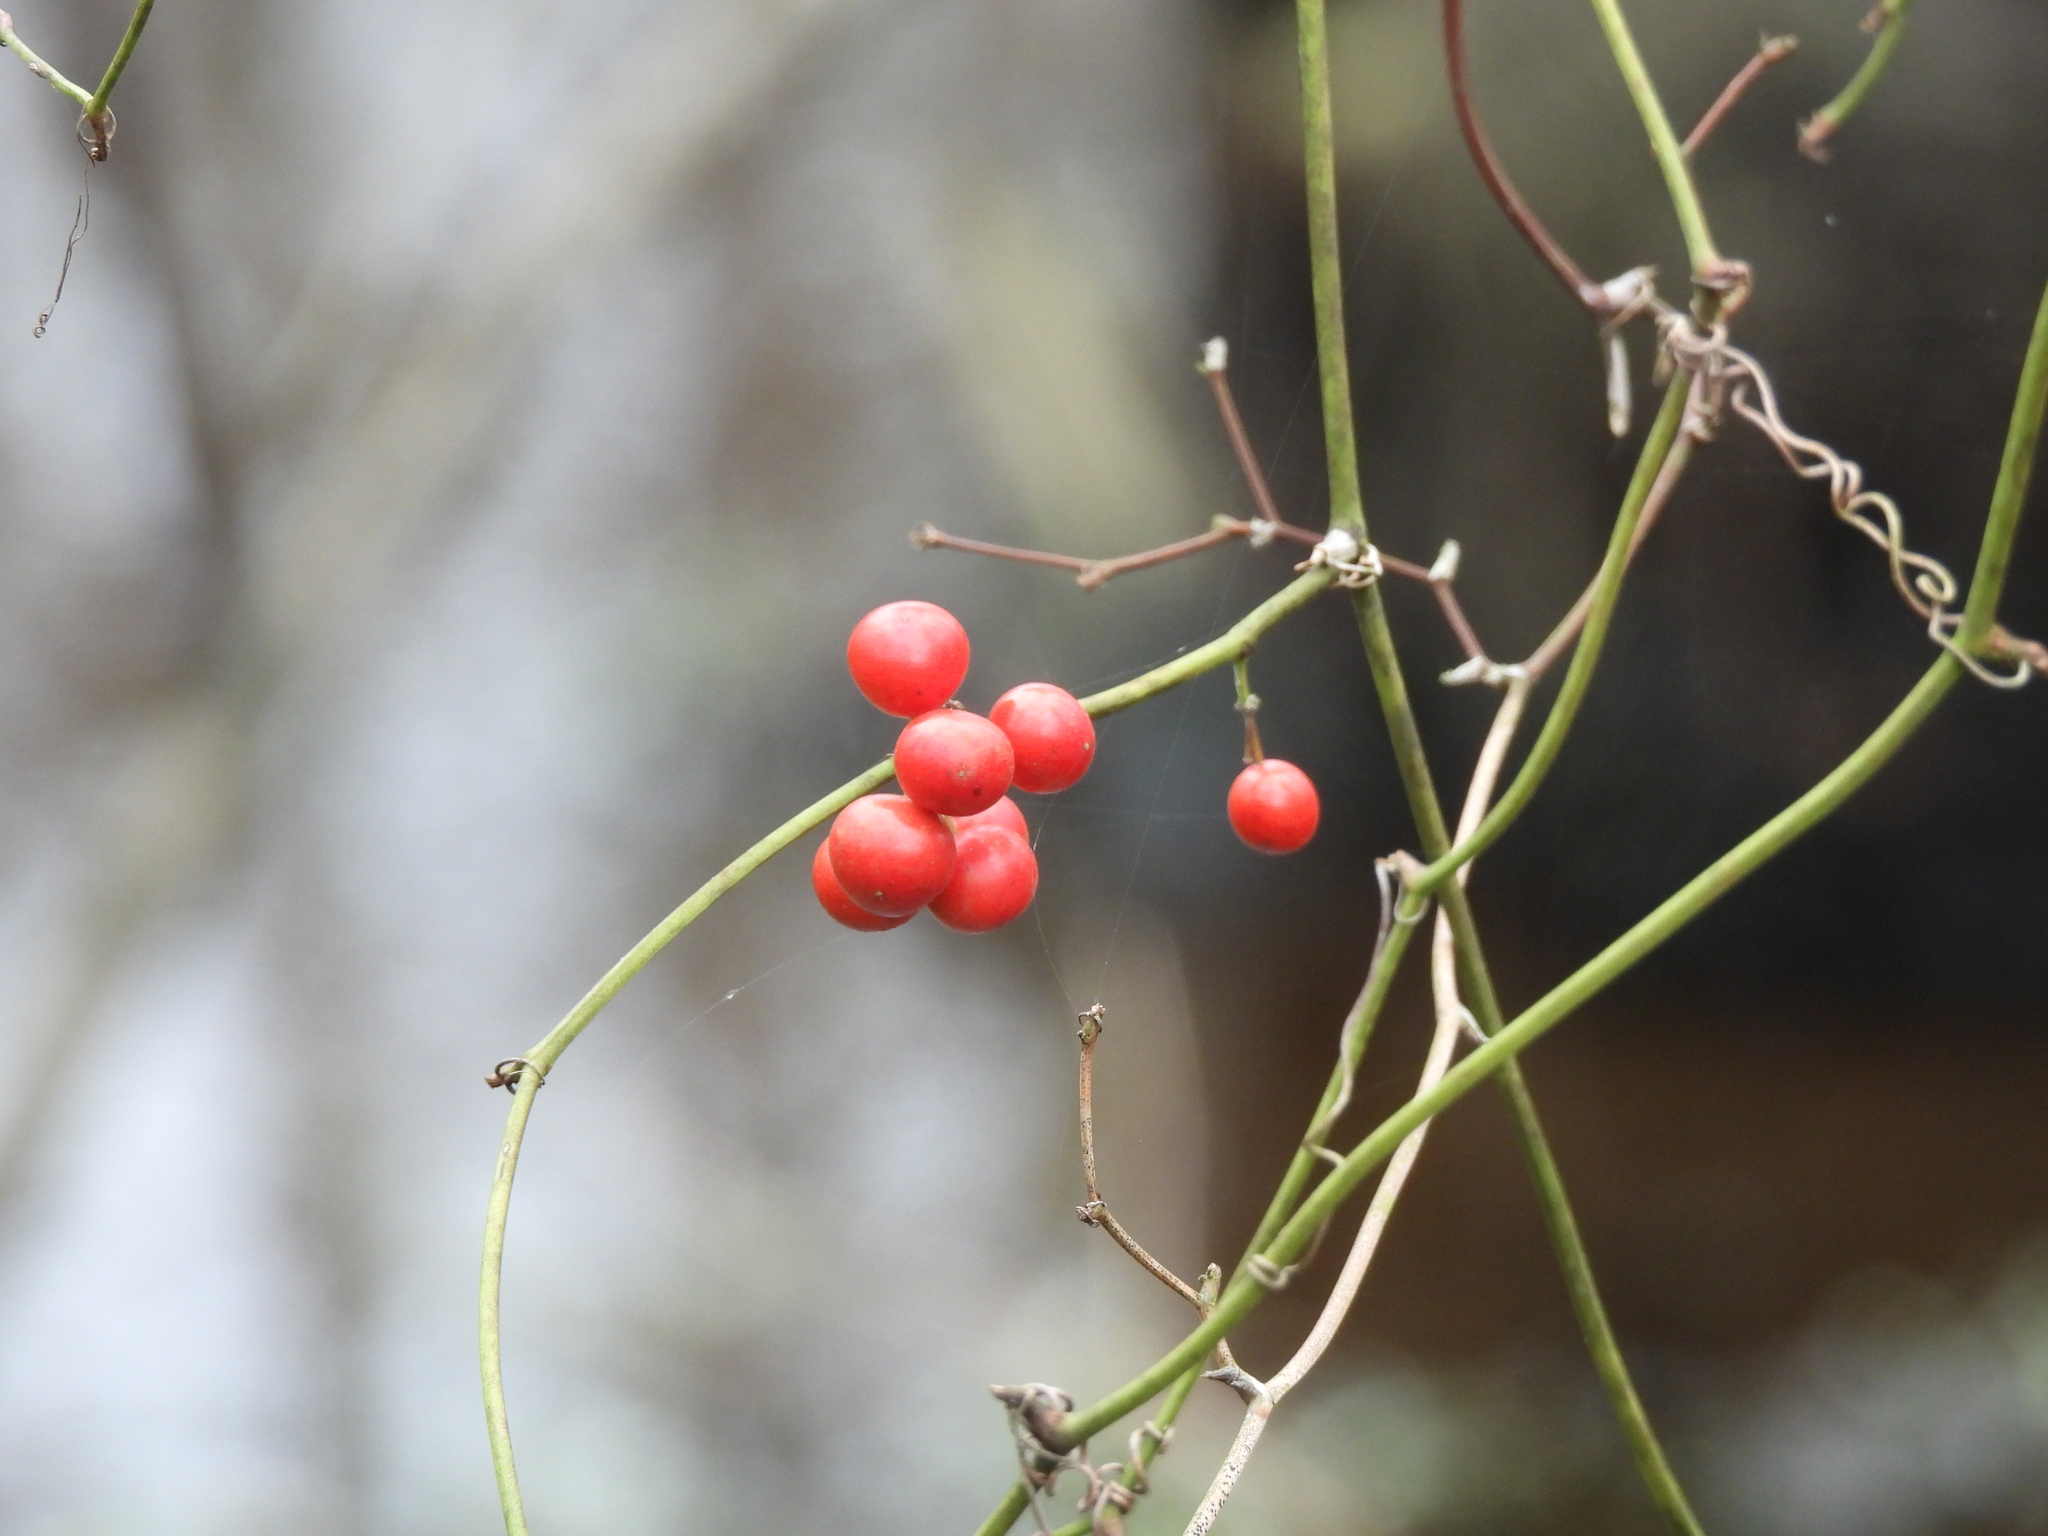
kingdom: Plantae
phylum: Tracheophyta
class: Liliopsida
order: Liliales
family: Smilacaceae
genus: Smilax
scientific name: Smilax walteri
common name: Coral greenbrier
